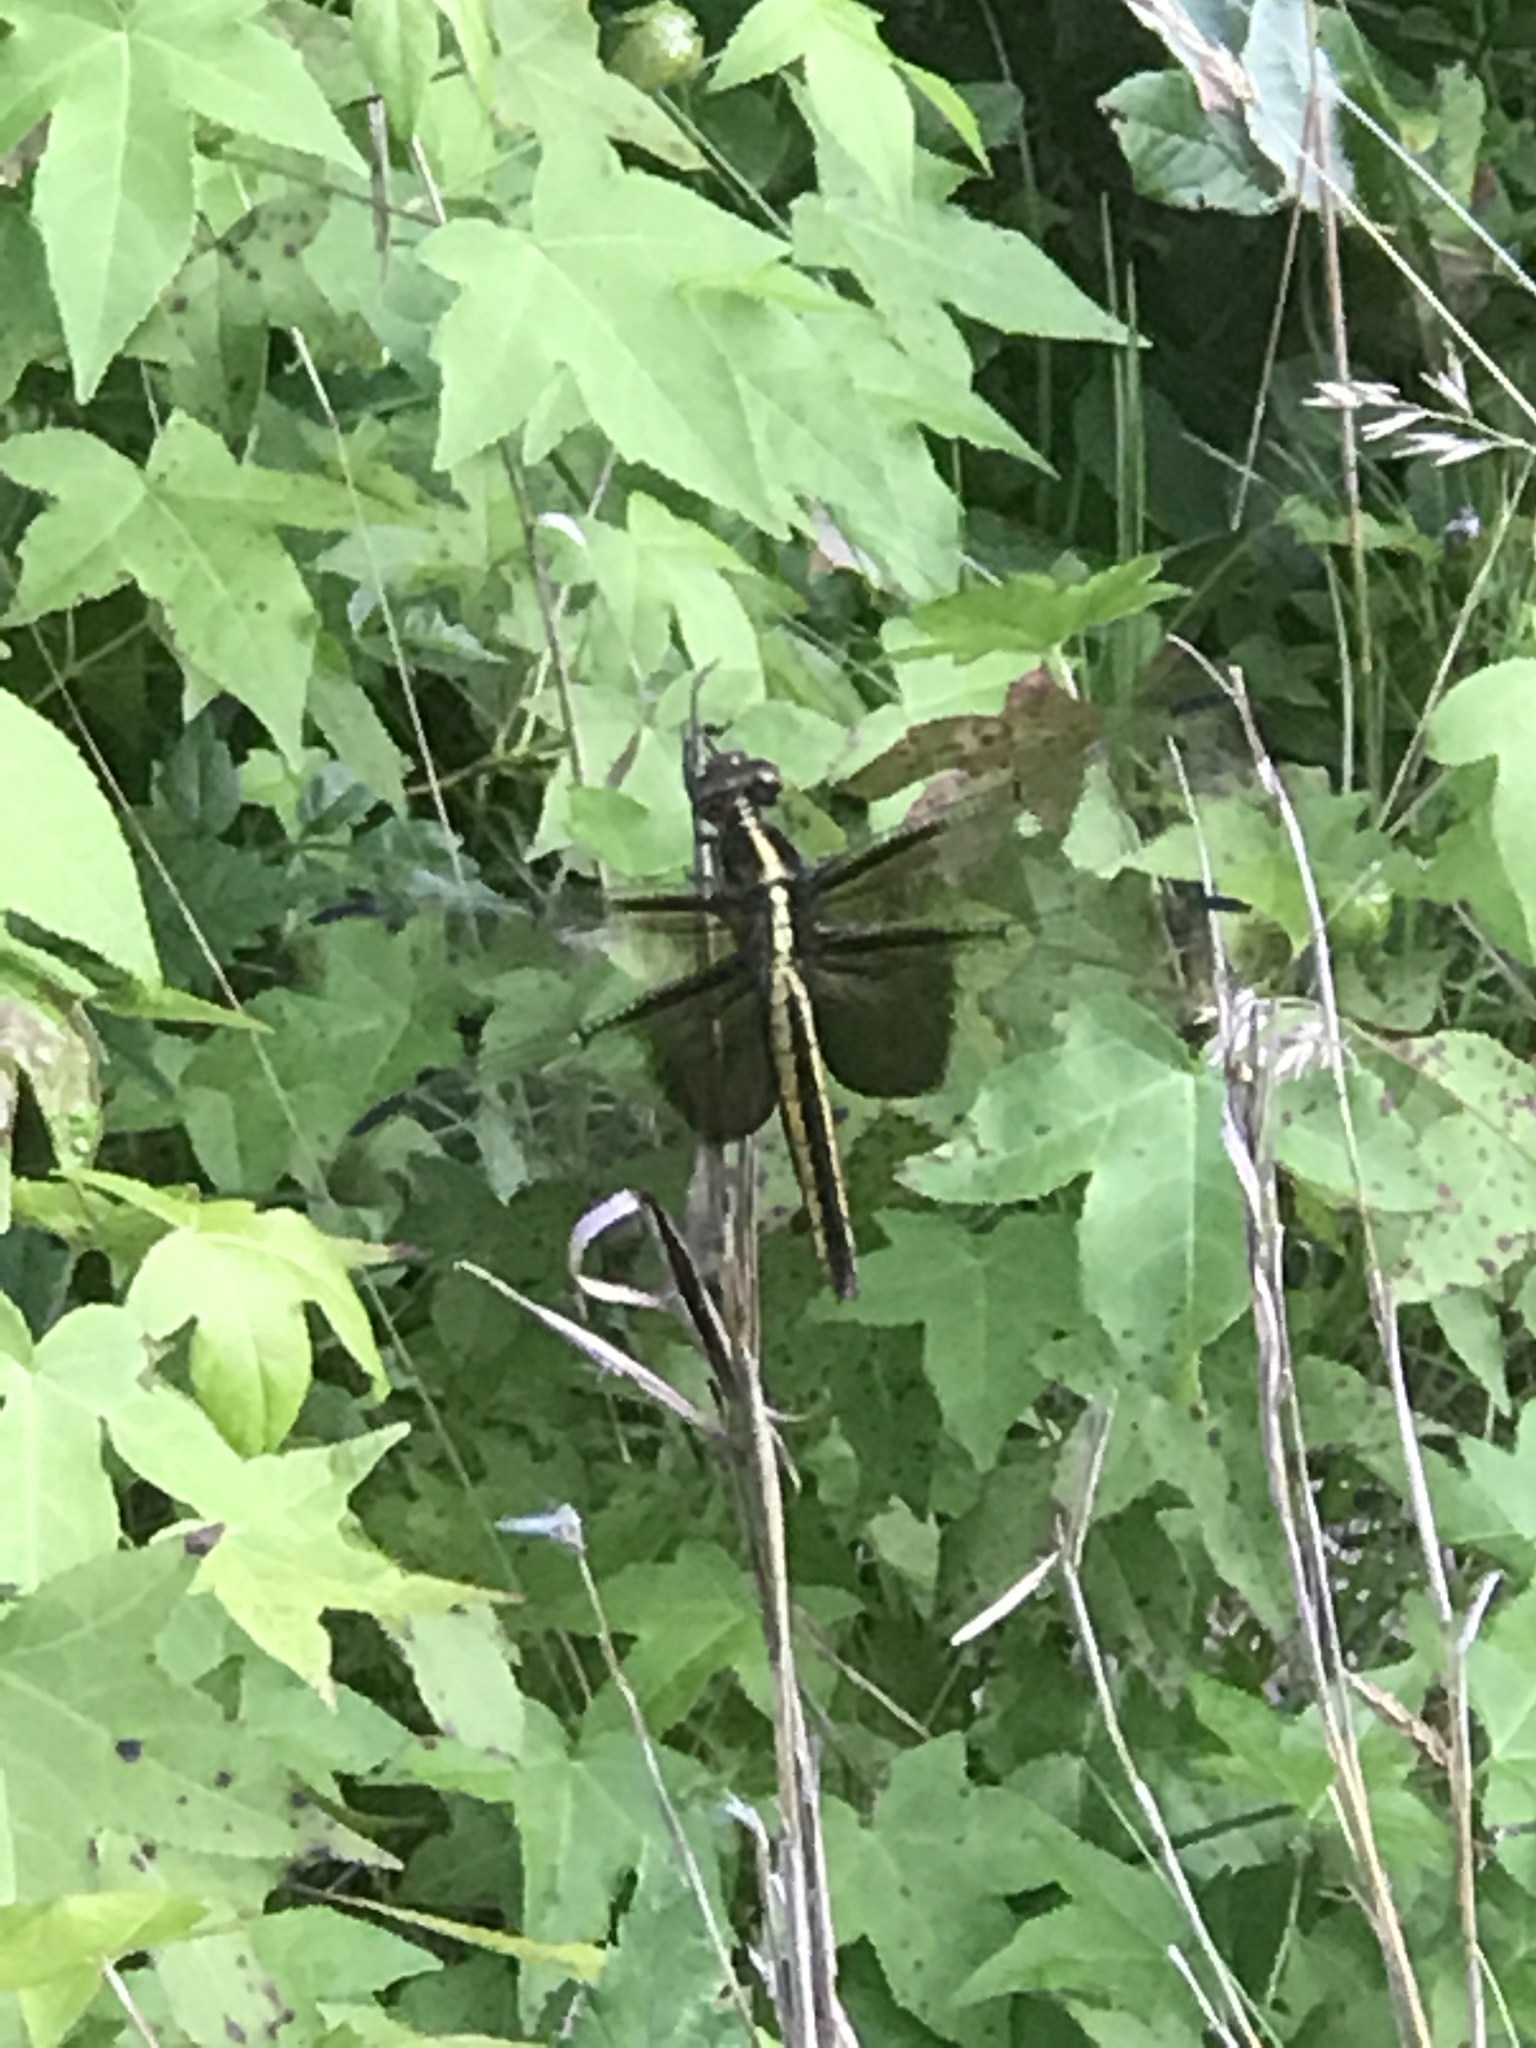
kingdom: Animalia
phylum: Arthropoda
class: Insecta
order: Odonata
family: Libellulidae
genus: Libellula
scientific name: Libellula luctuosa
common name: Widow skimmer
